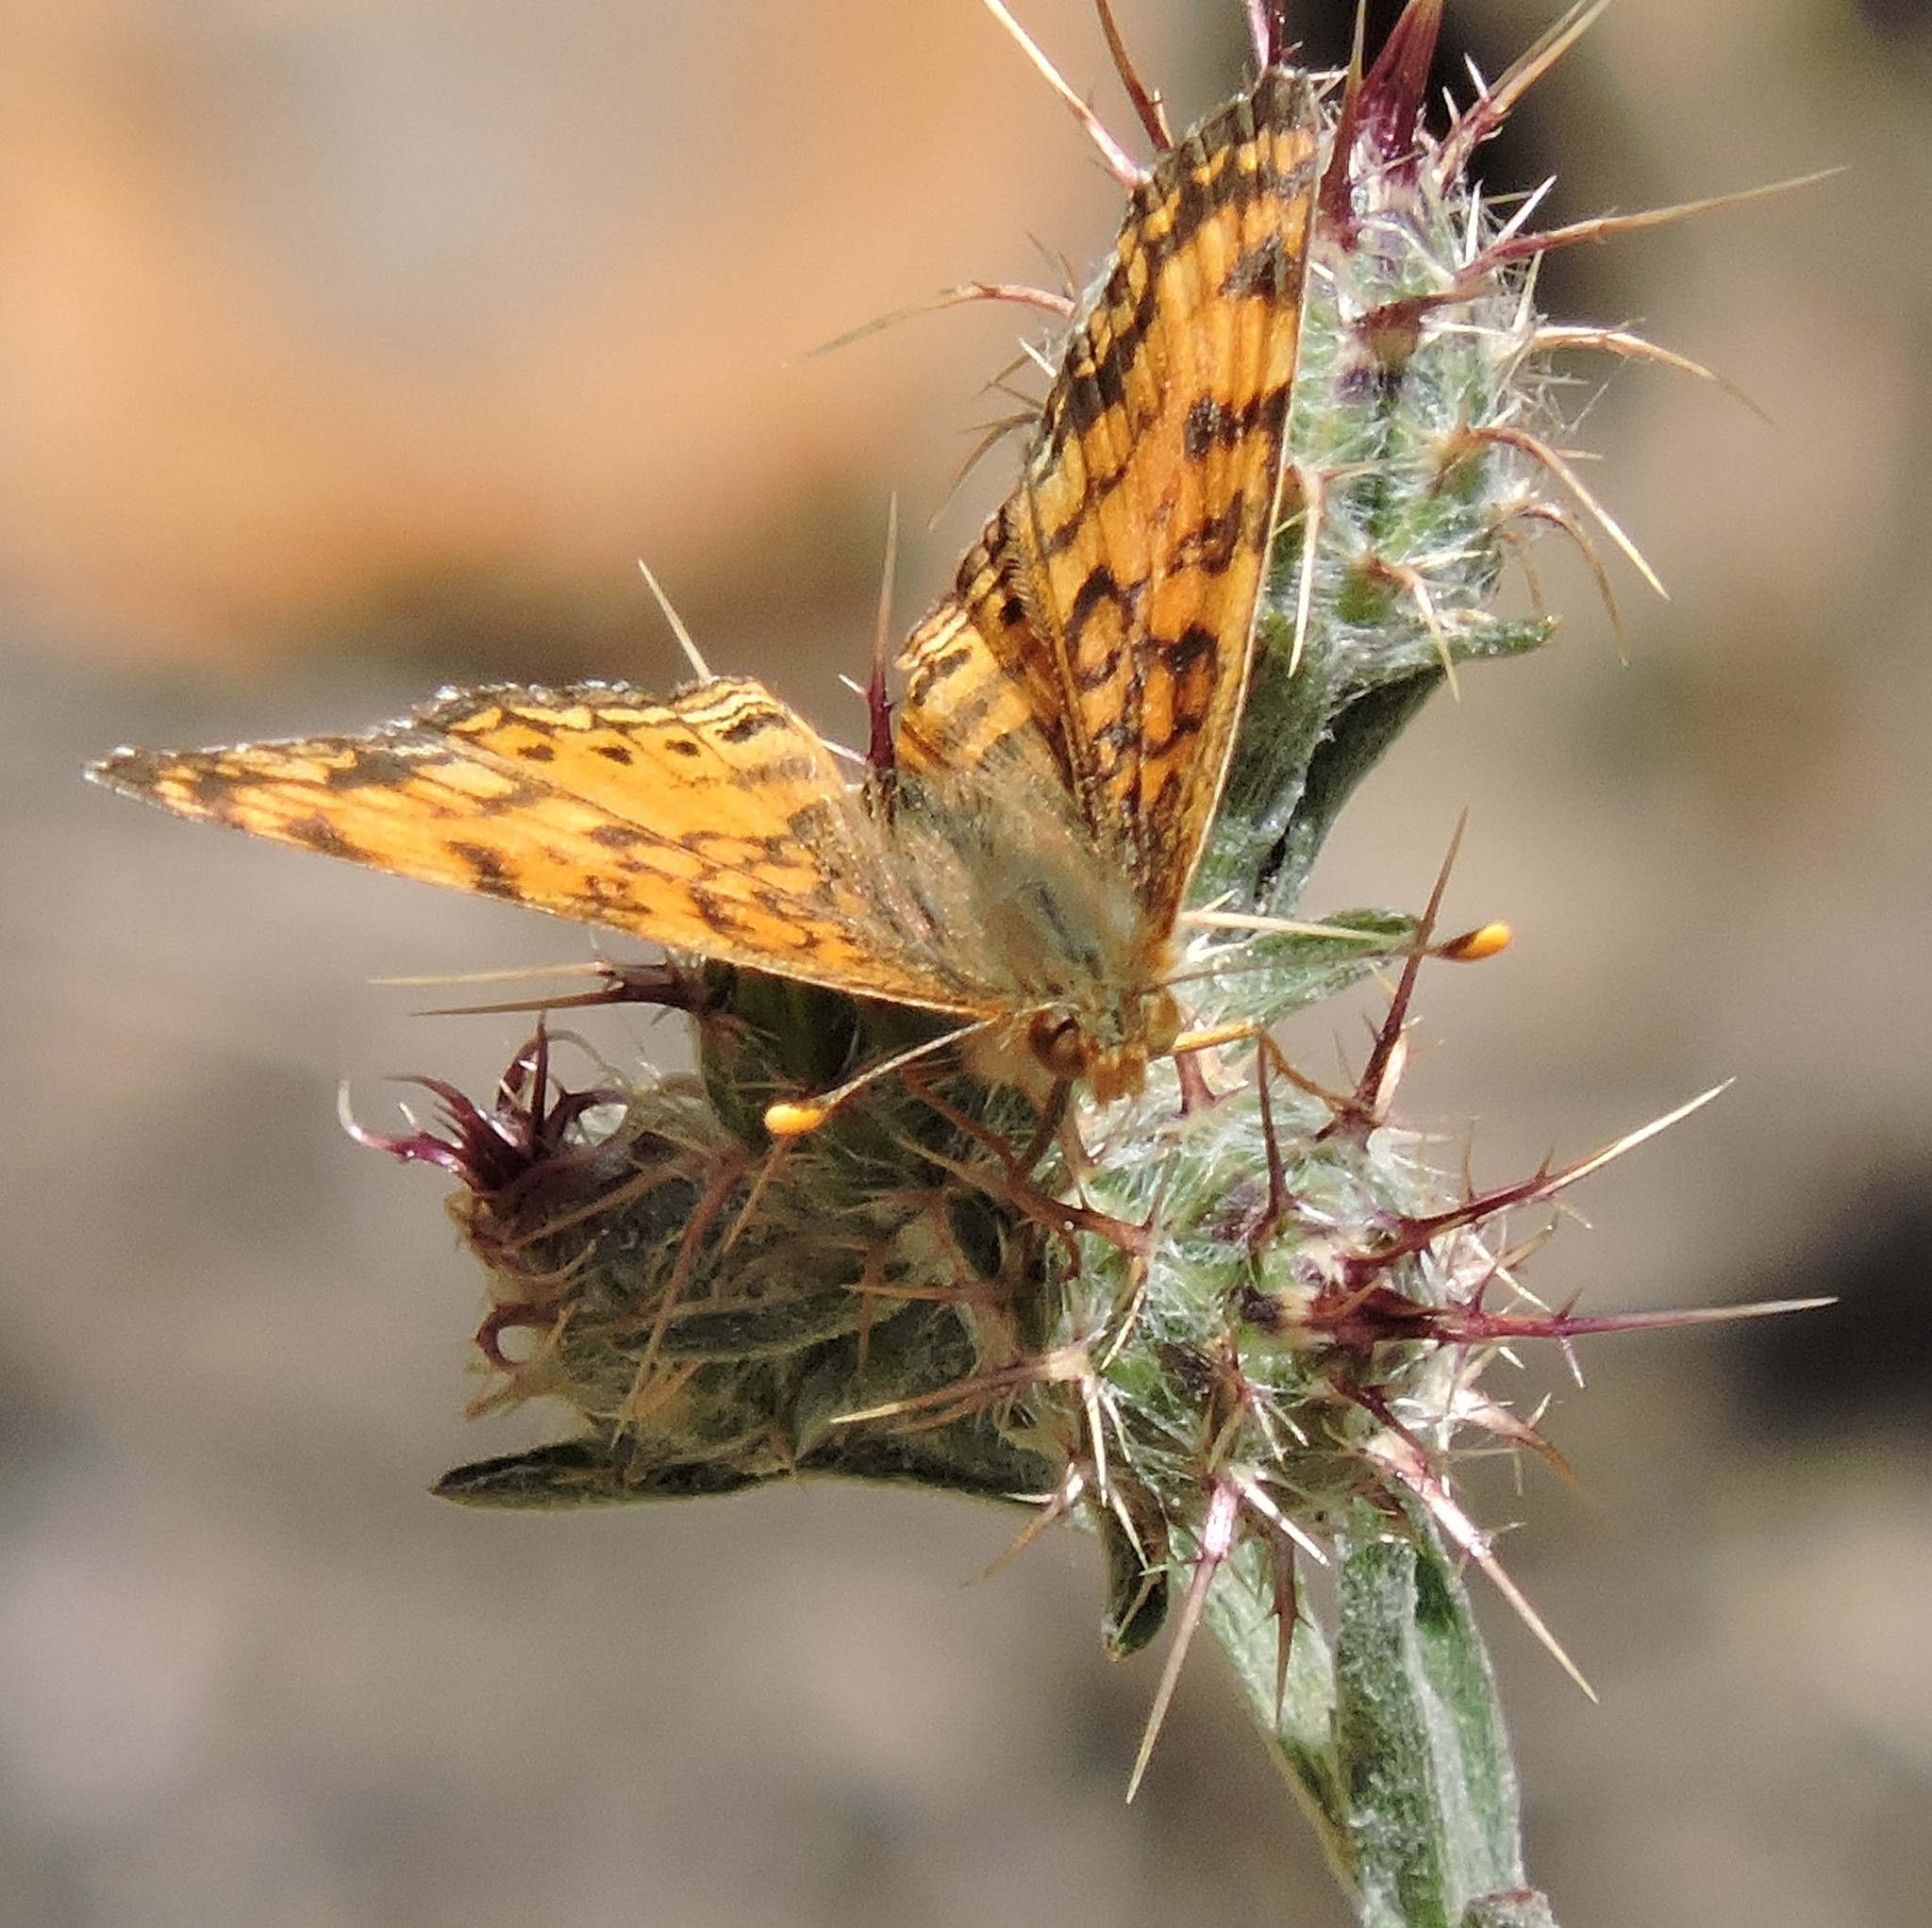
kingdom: Animalia
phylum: Arthropoda
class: Insecta
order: Lepidoptera
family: Nymphalidae
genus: Eresia
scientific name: Eresia aveyrona
